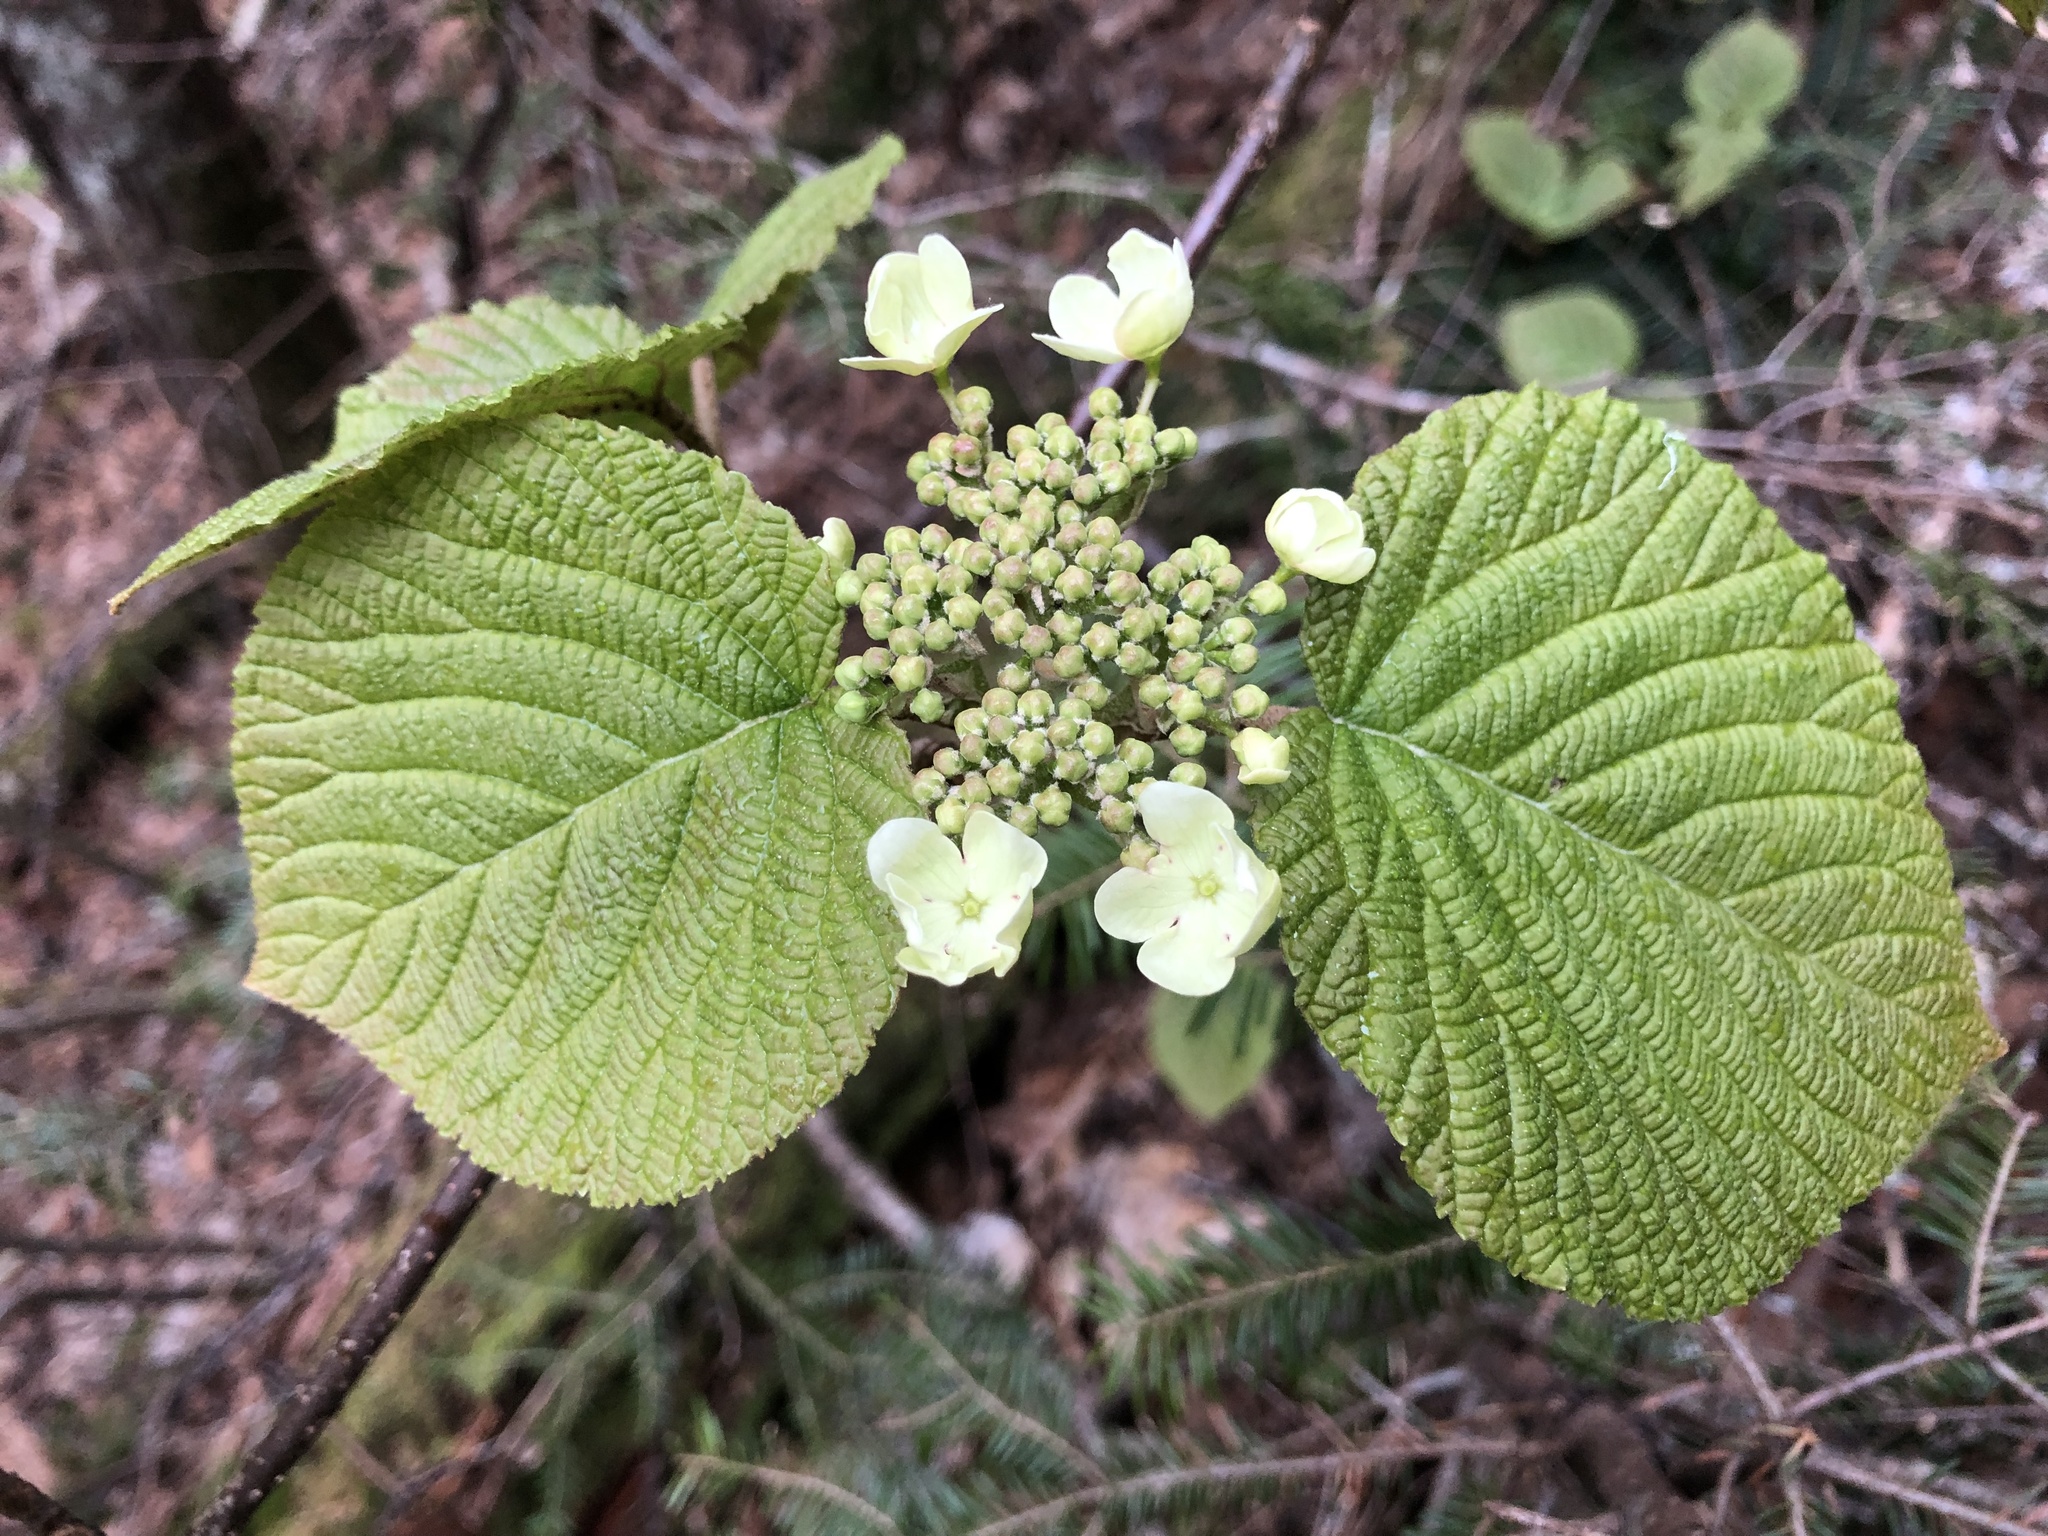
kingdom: Plantae
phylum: Tracheophyta
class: Magnoliopsida
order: Dipsacales
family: Viburnaceae
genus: Viburnum
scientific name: Viburnum lantanoides
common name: Hobblebush
